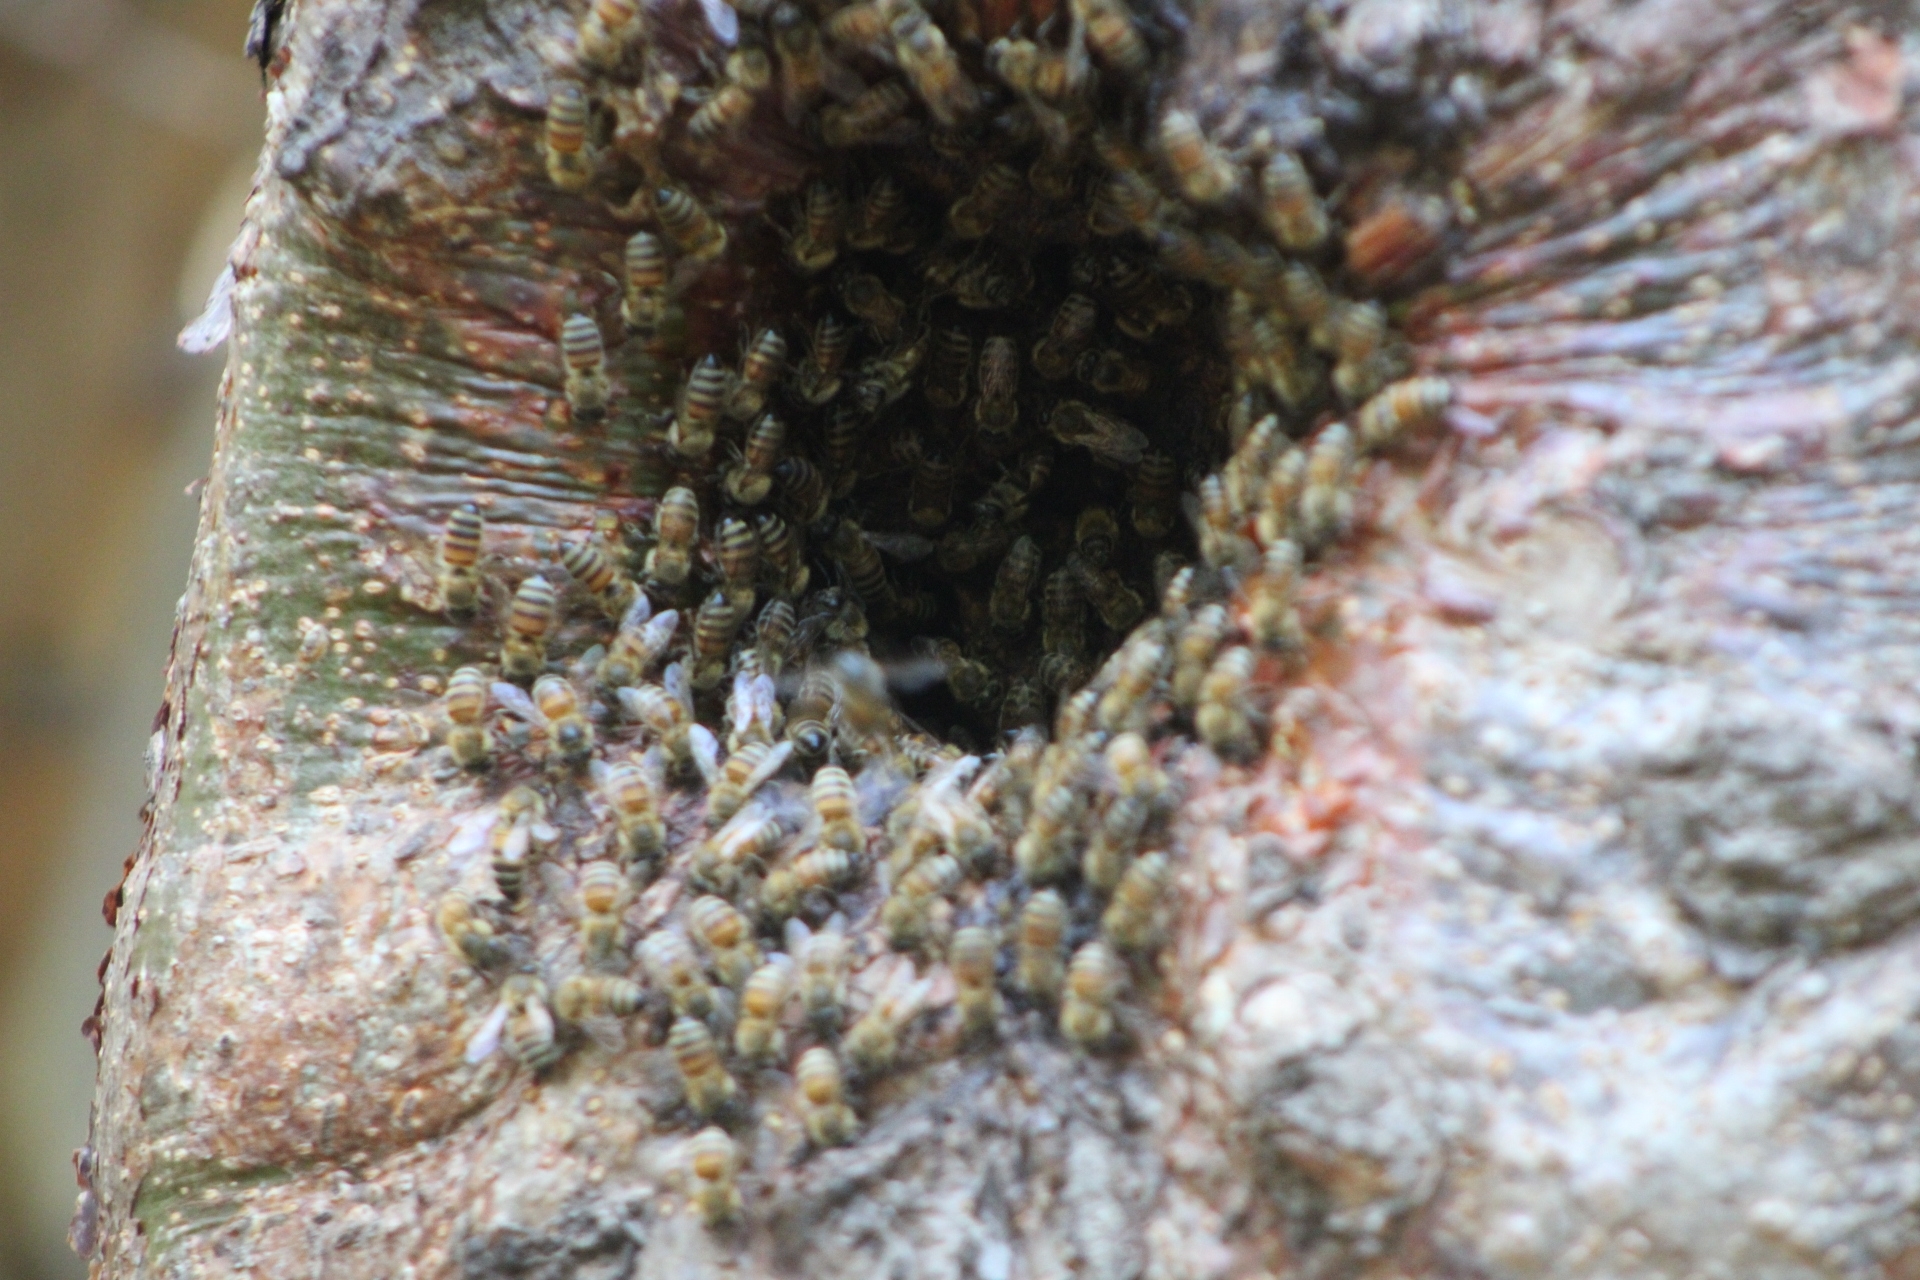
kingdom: Animalia
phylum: Arthropoda
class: Insecta
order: Hymenoptera
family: Apidae
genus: Apis
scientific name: Apis mellifera
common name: Honey bee
